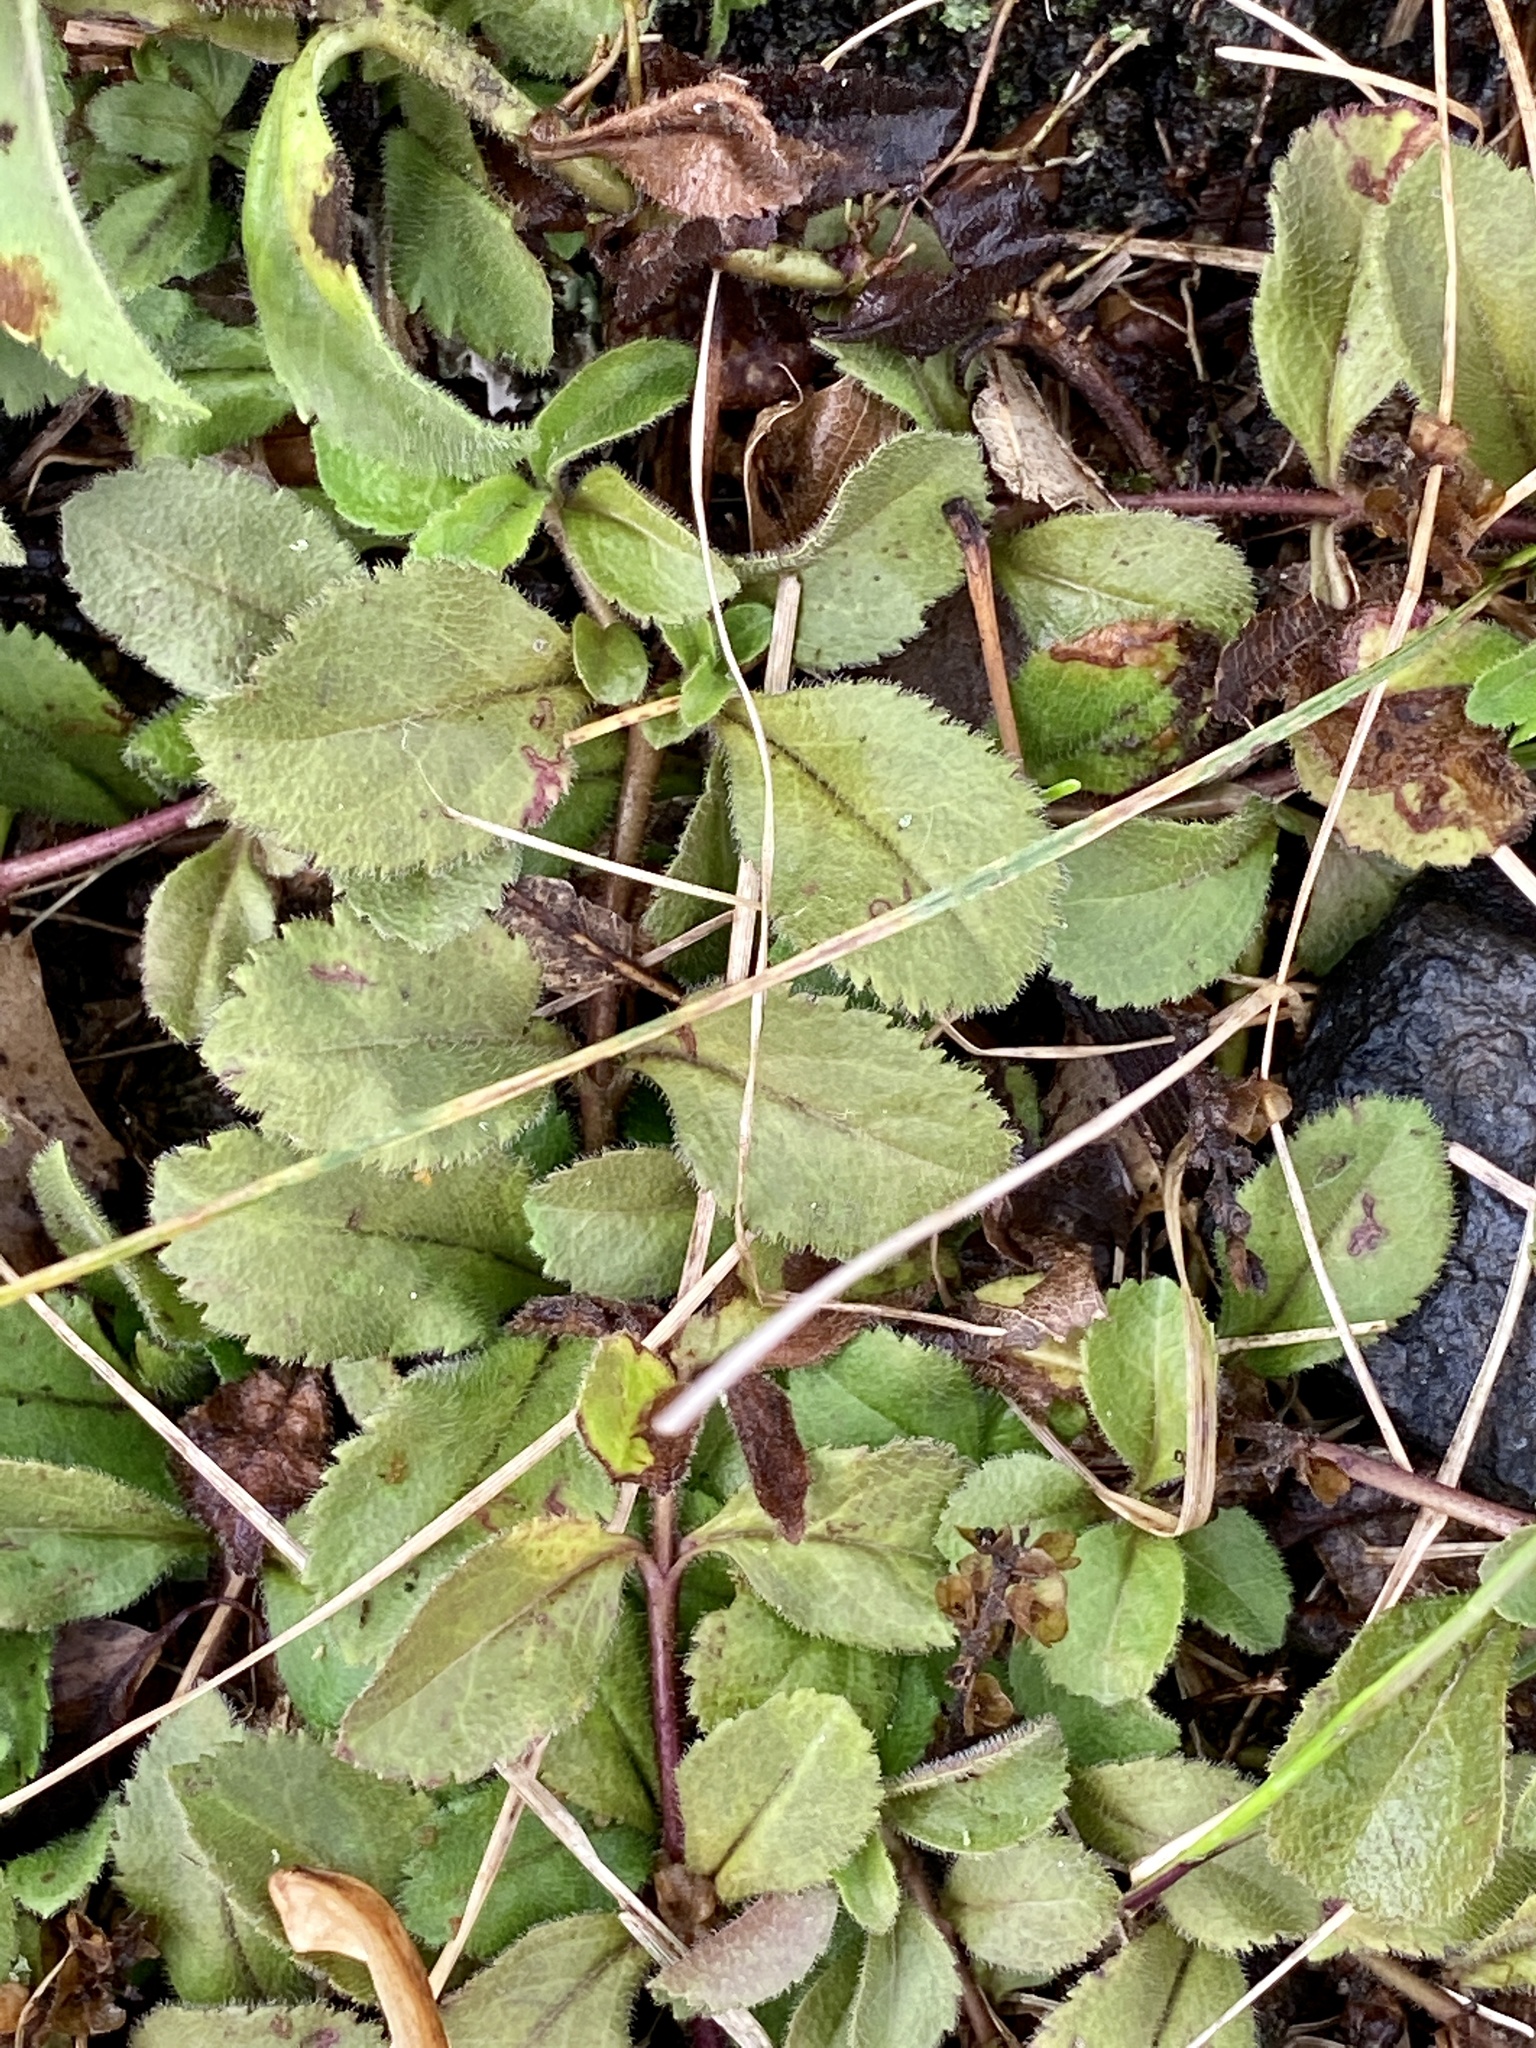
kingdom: Plantae
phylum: Tracheophyta
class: Magnoliopsida
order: Lamiales
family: Plantaginaceae
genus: Veronica
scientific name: Veronica officinalis
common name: Common speedwell
